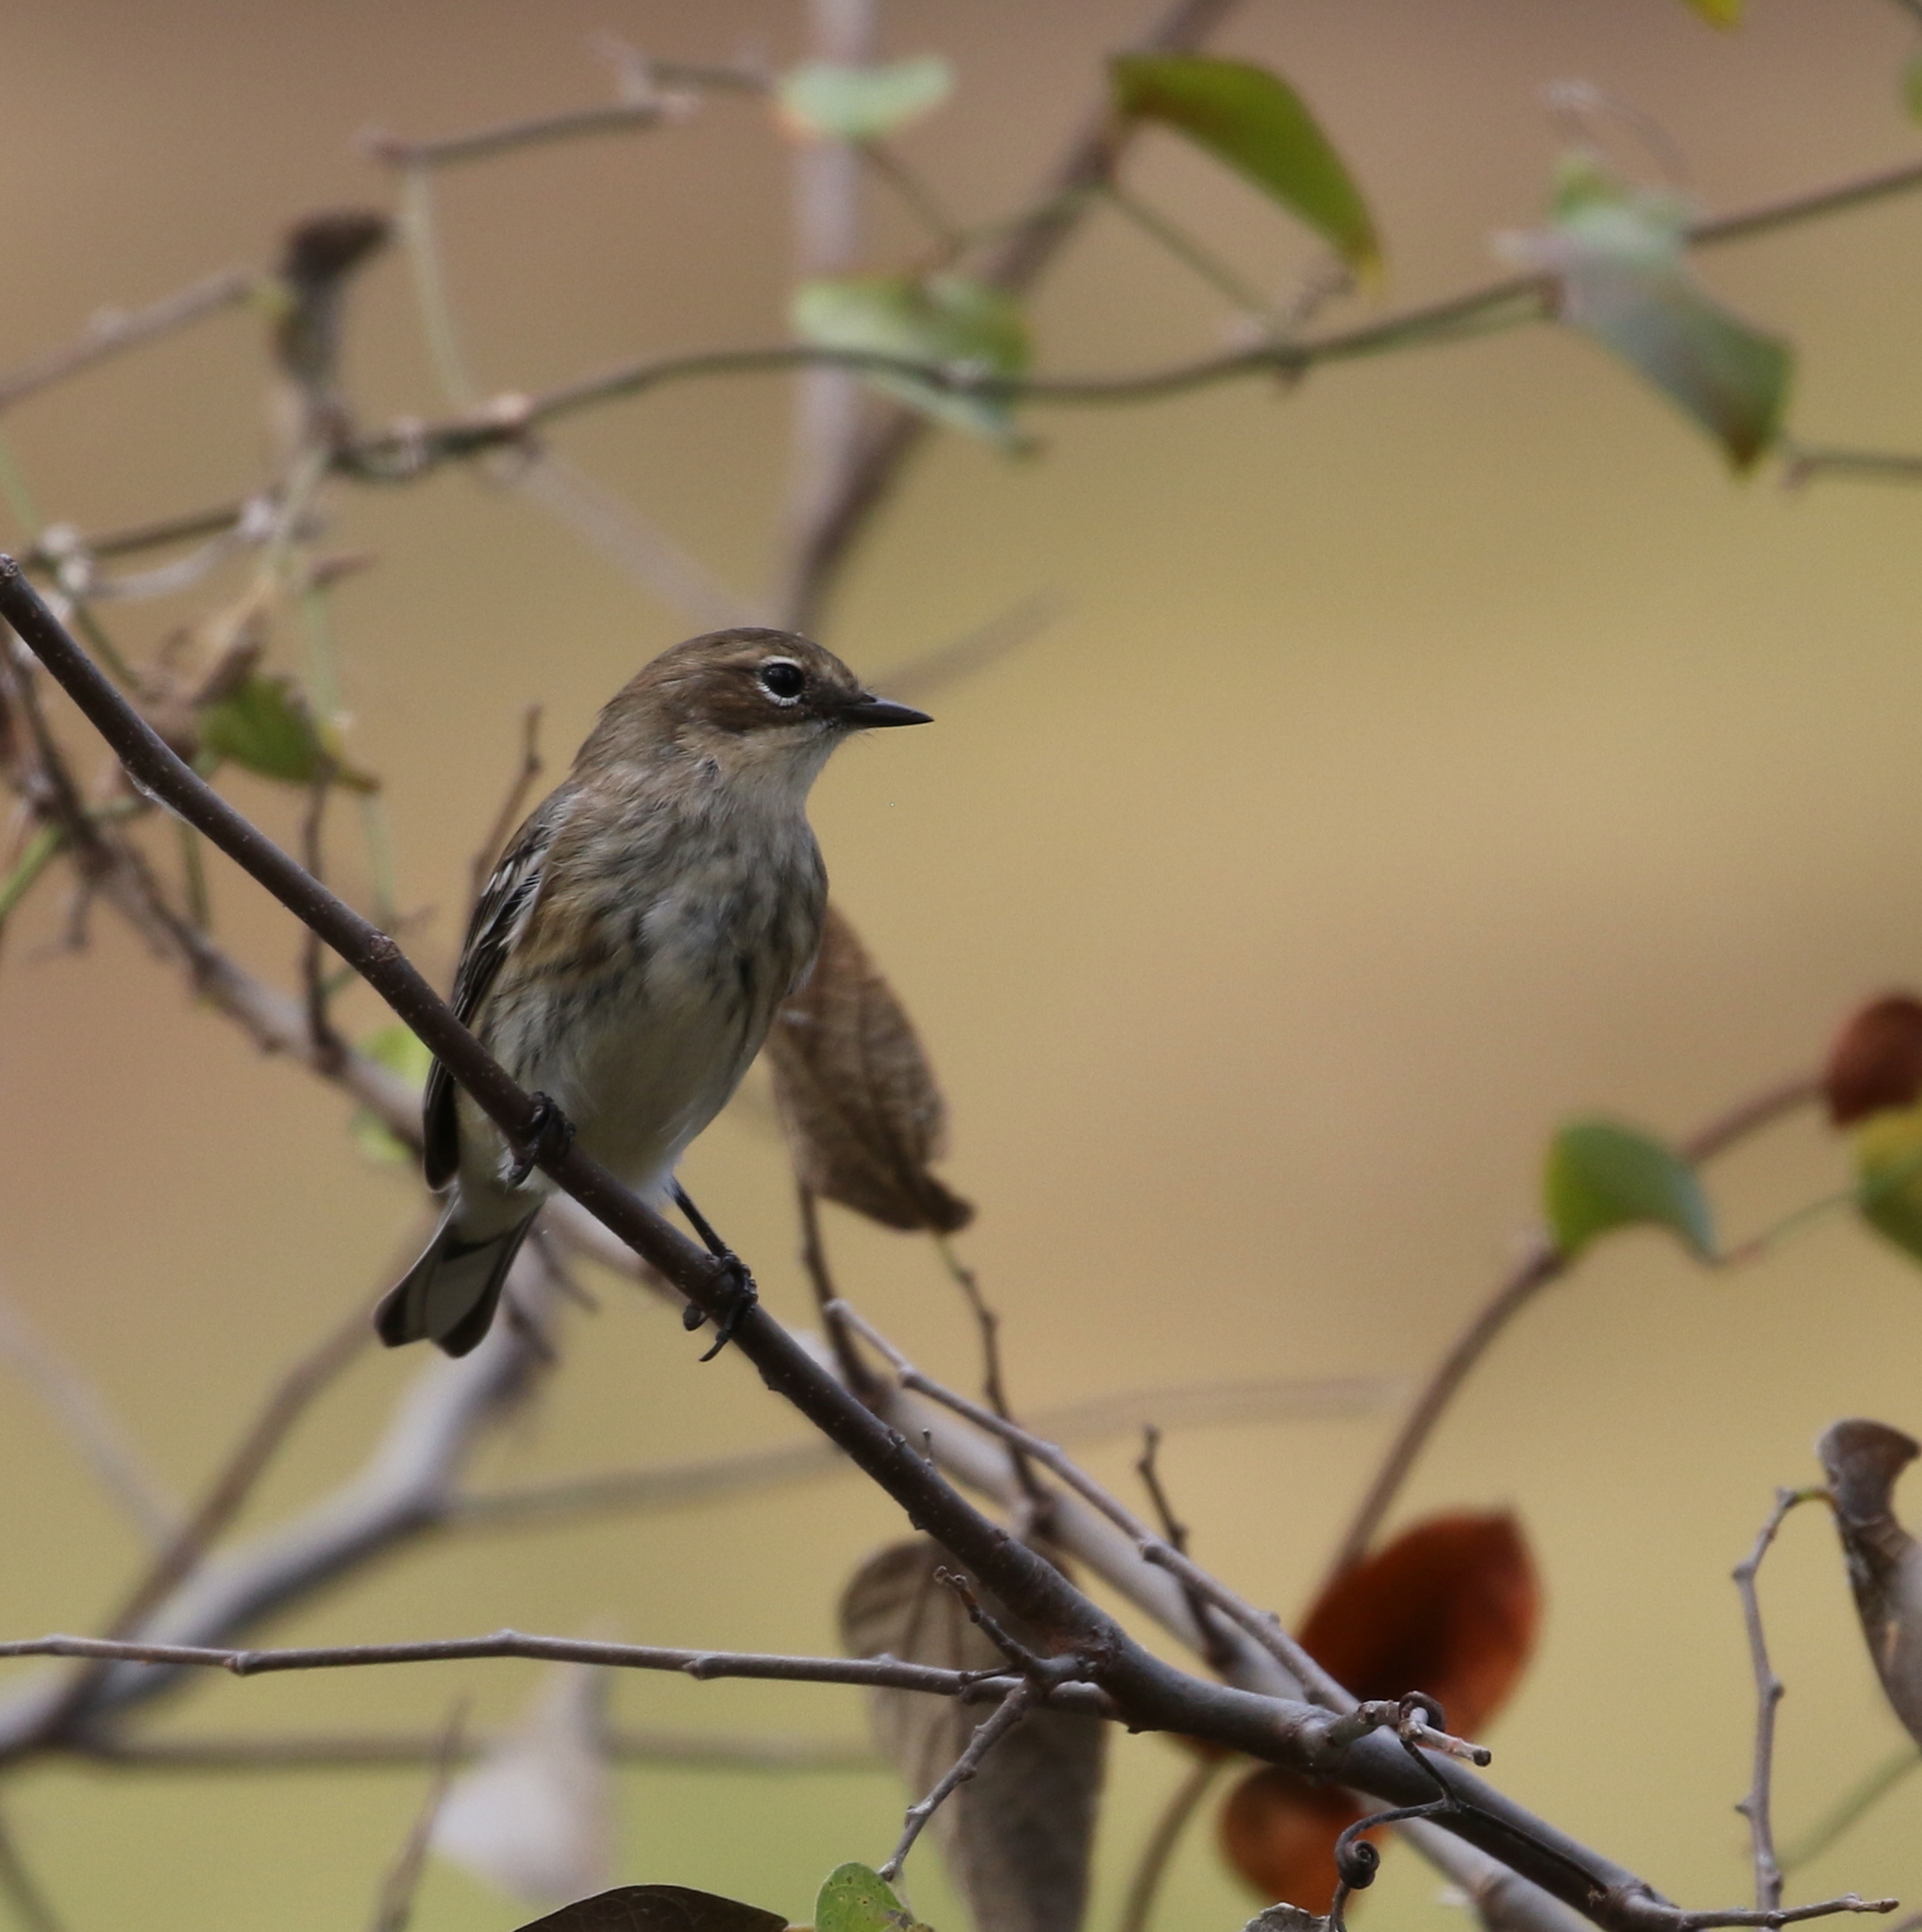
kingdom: Animalia
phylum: Chordata
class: Aves
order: Passeriformes
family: Parulidae
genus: Setophaga
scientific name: Setophaga coronata
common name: Myrtle warbler
